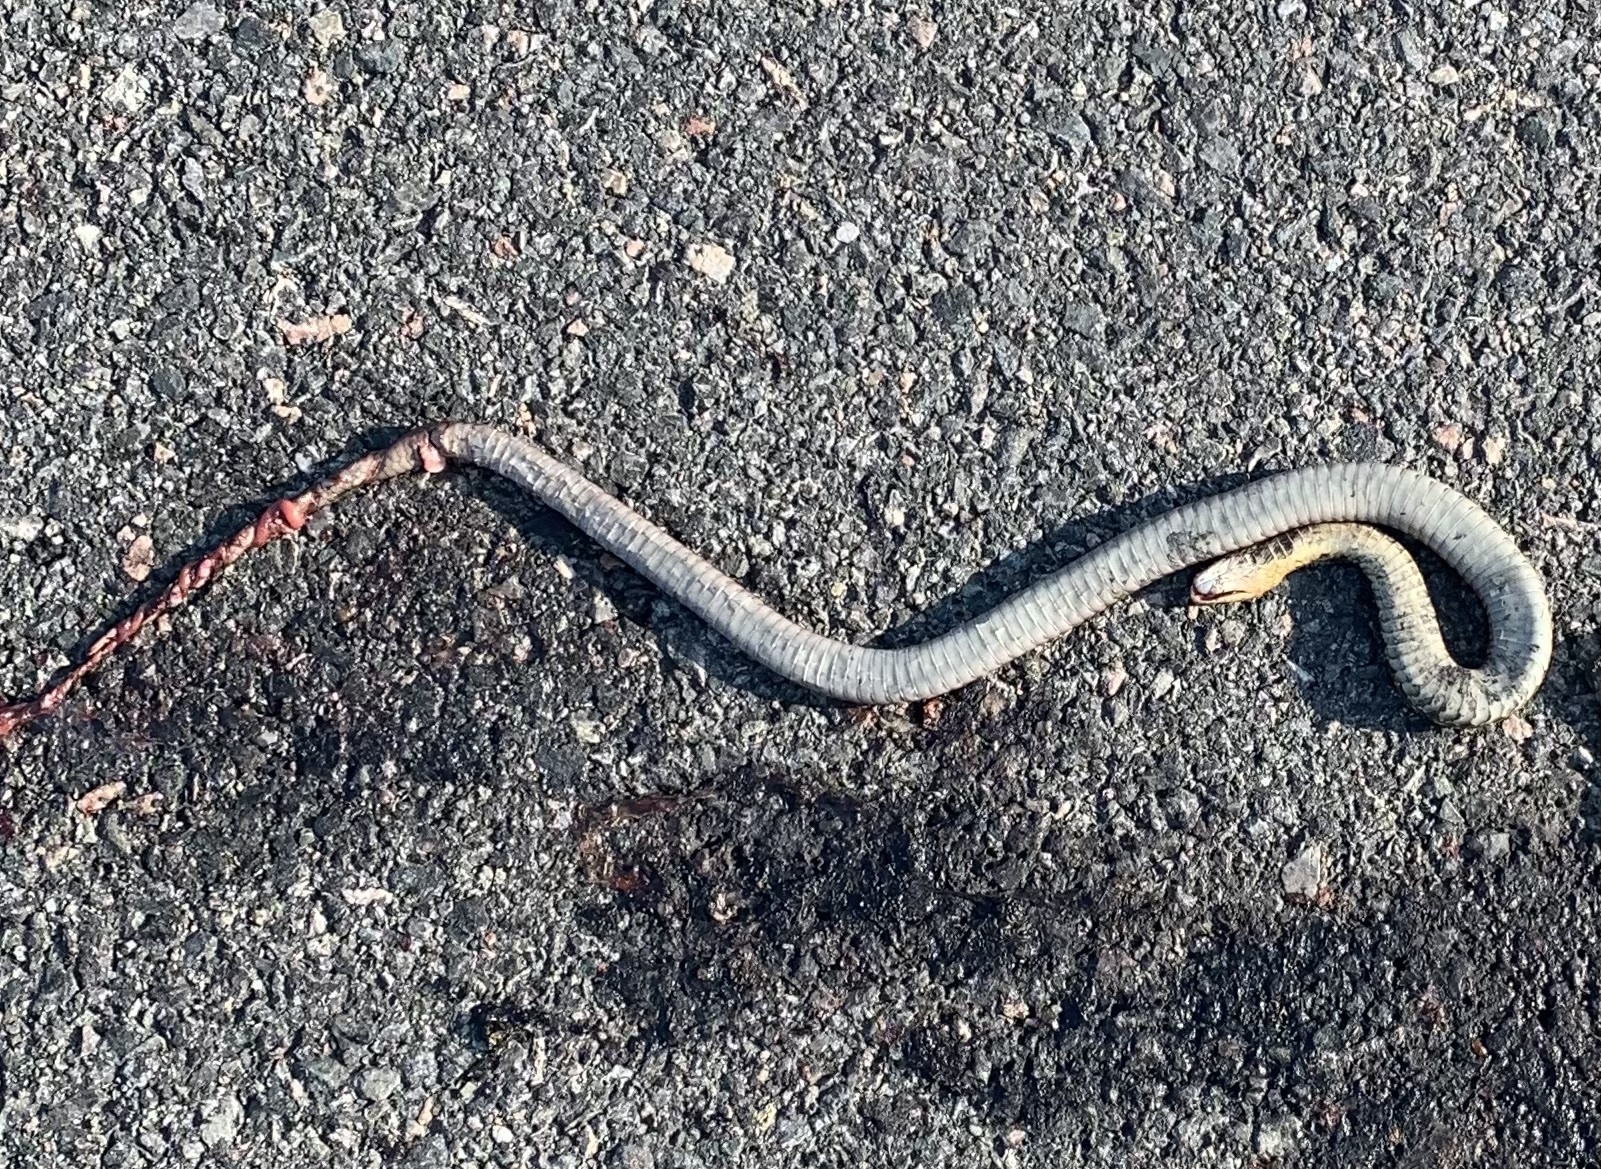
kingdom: Animalia
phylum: Chordata
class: Squamata
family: Colubridae
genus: Thamnophis
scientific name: Thamnophis sirtalis
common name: Common garter snake
